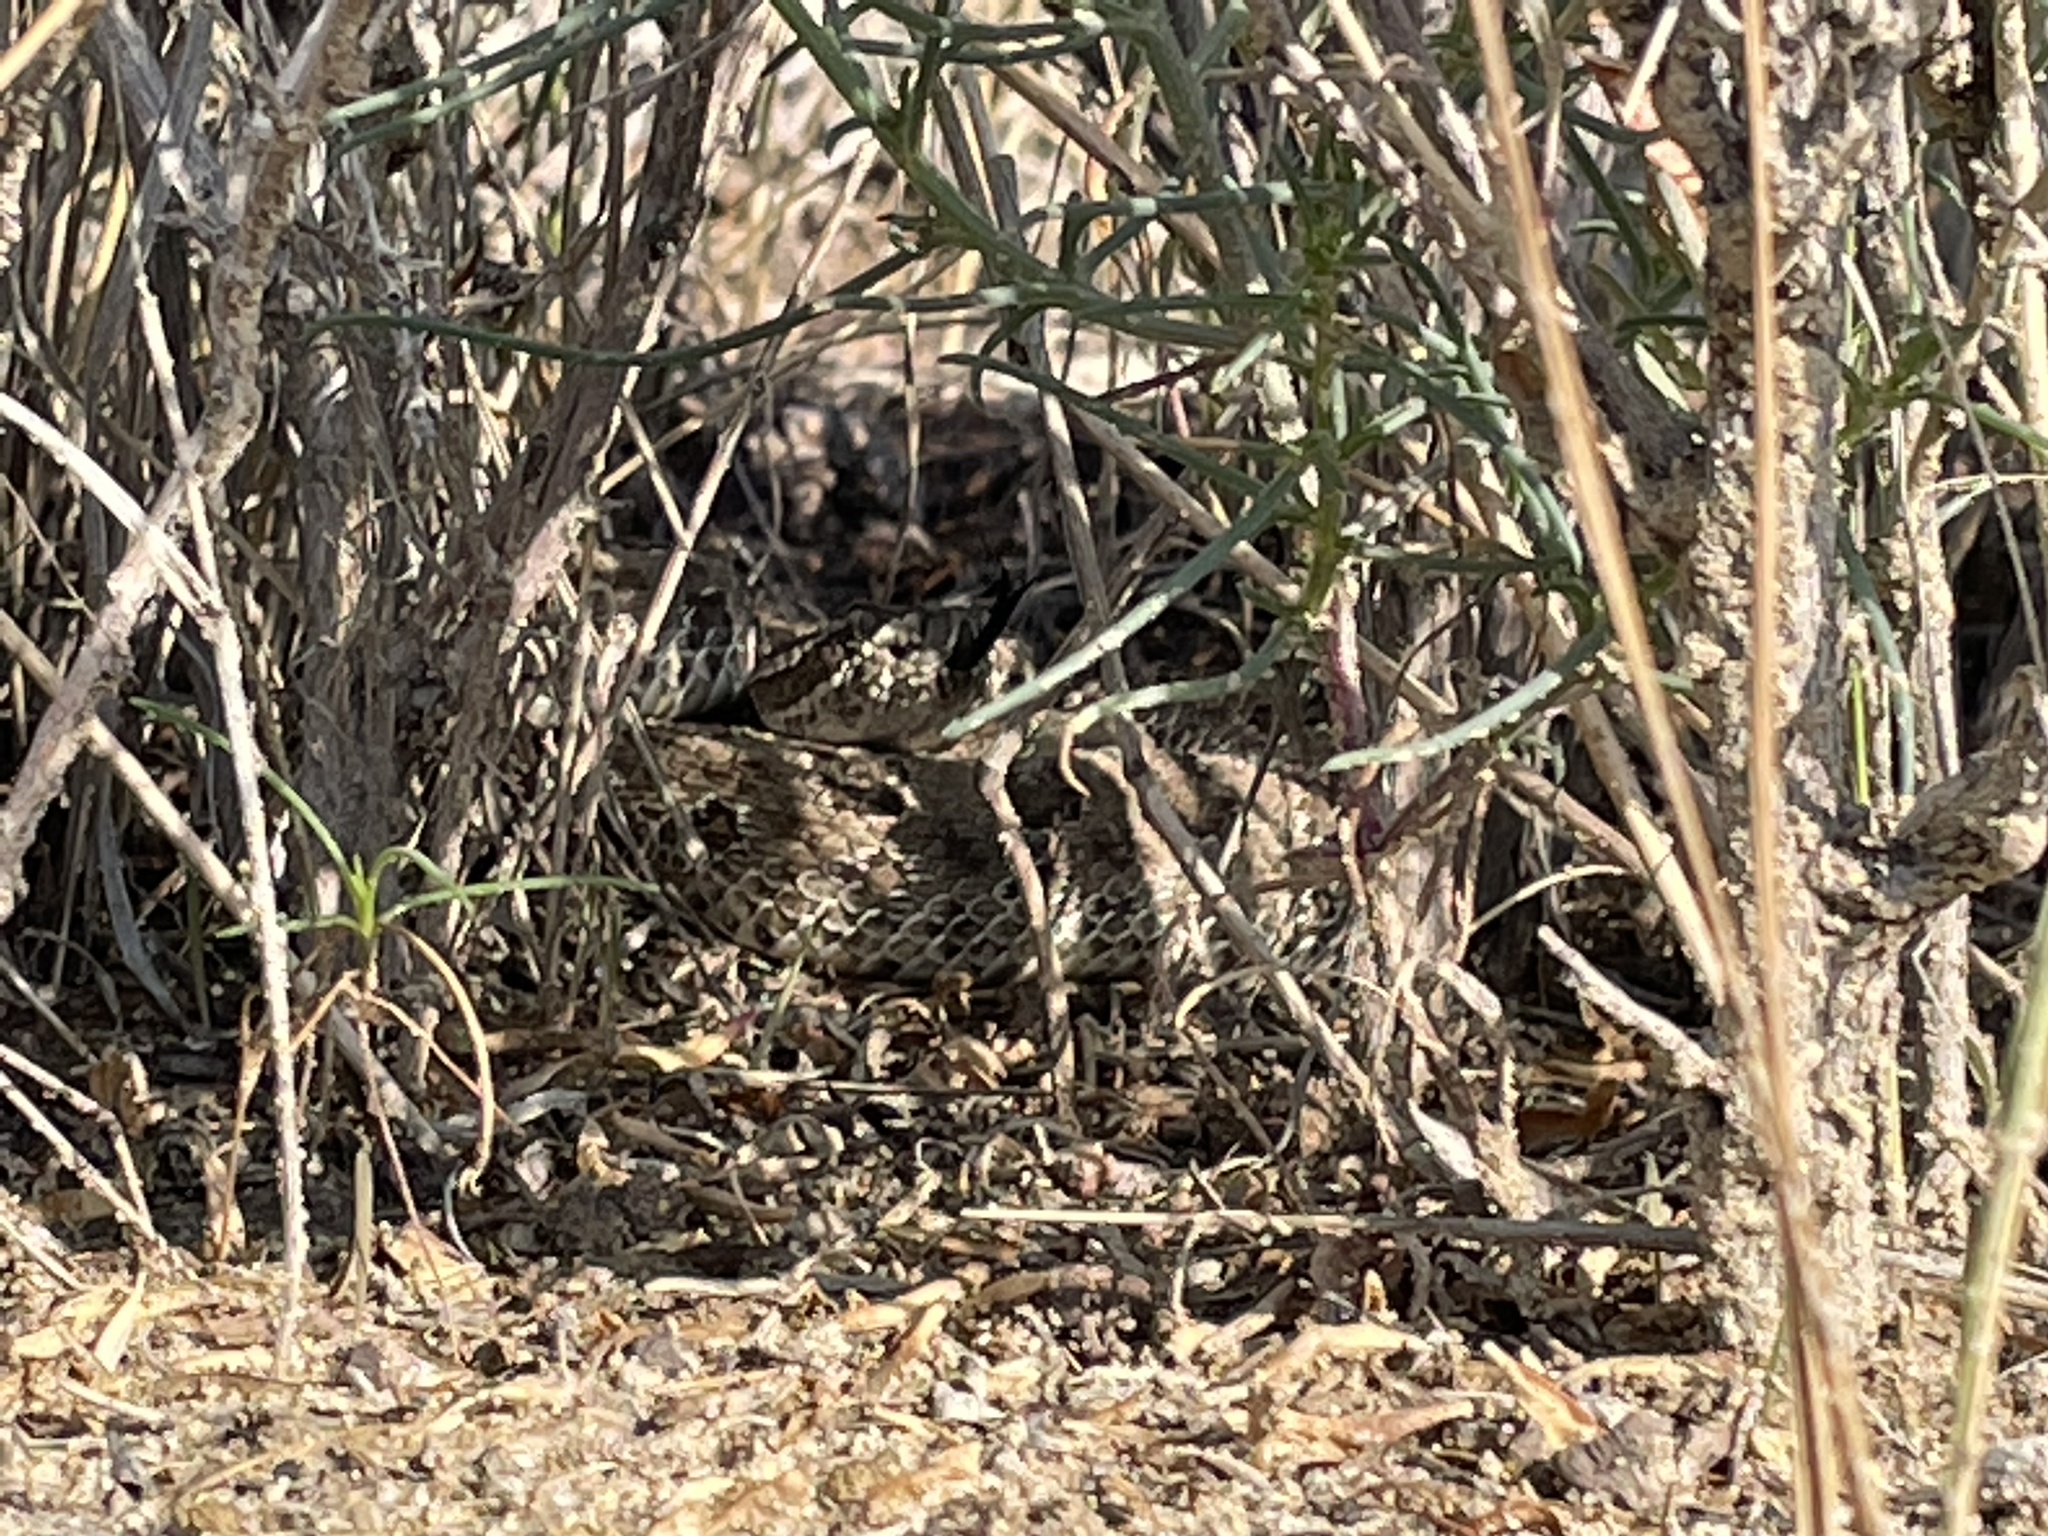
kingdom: Animalia
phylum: Chordata
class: Squamata
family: Viperidae
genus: Crotalus
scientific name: Crotalus viridis
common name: Prairie rattlesnake
